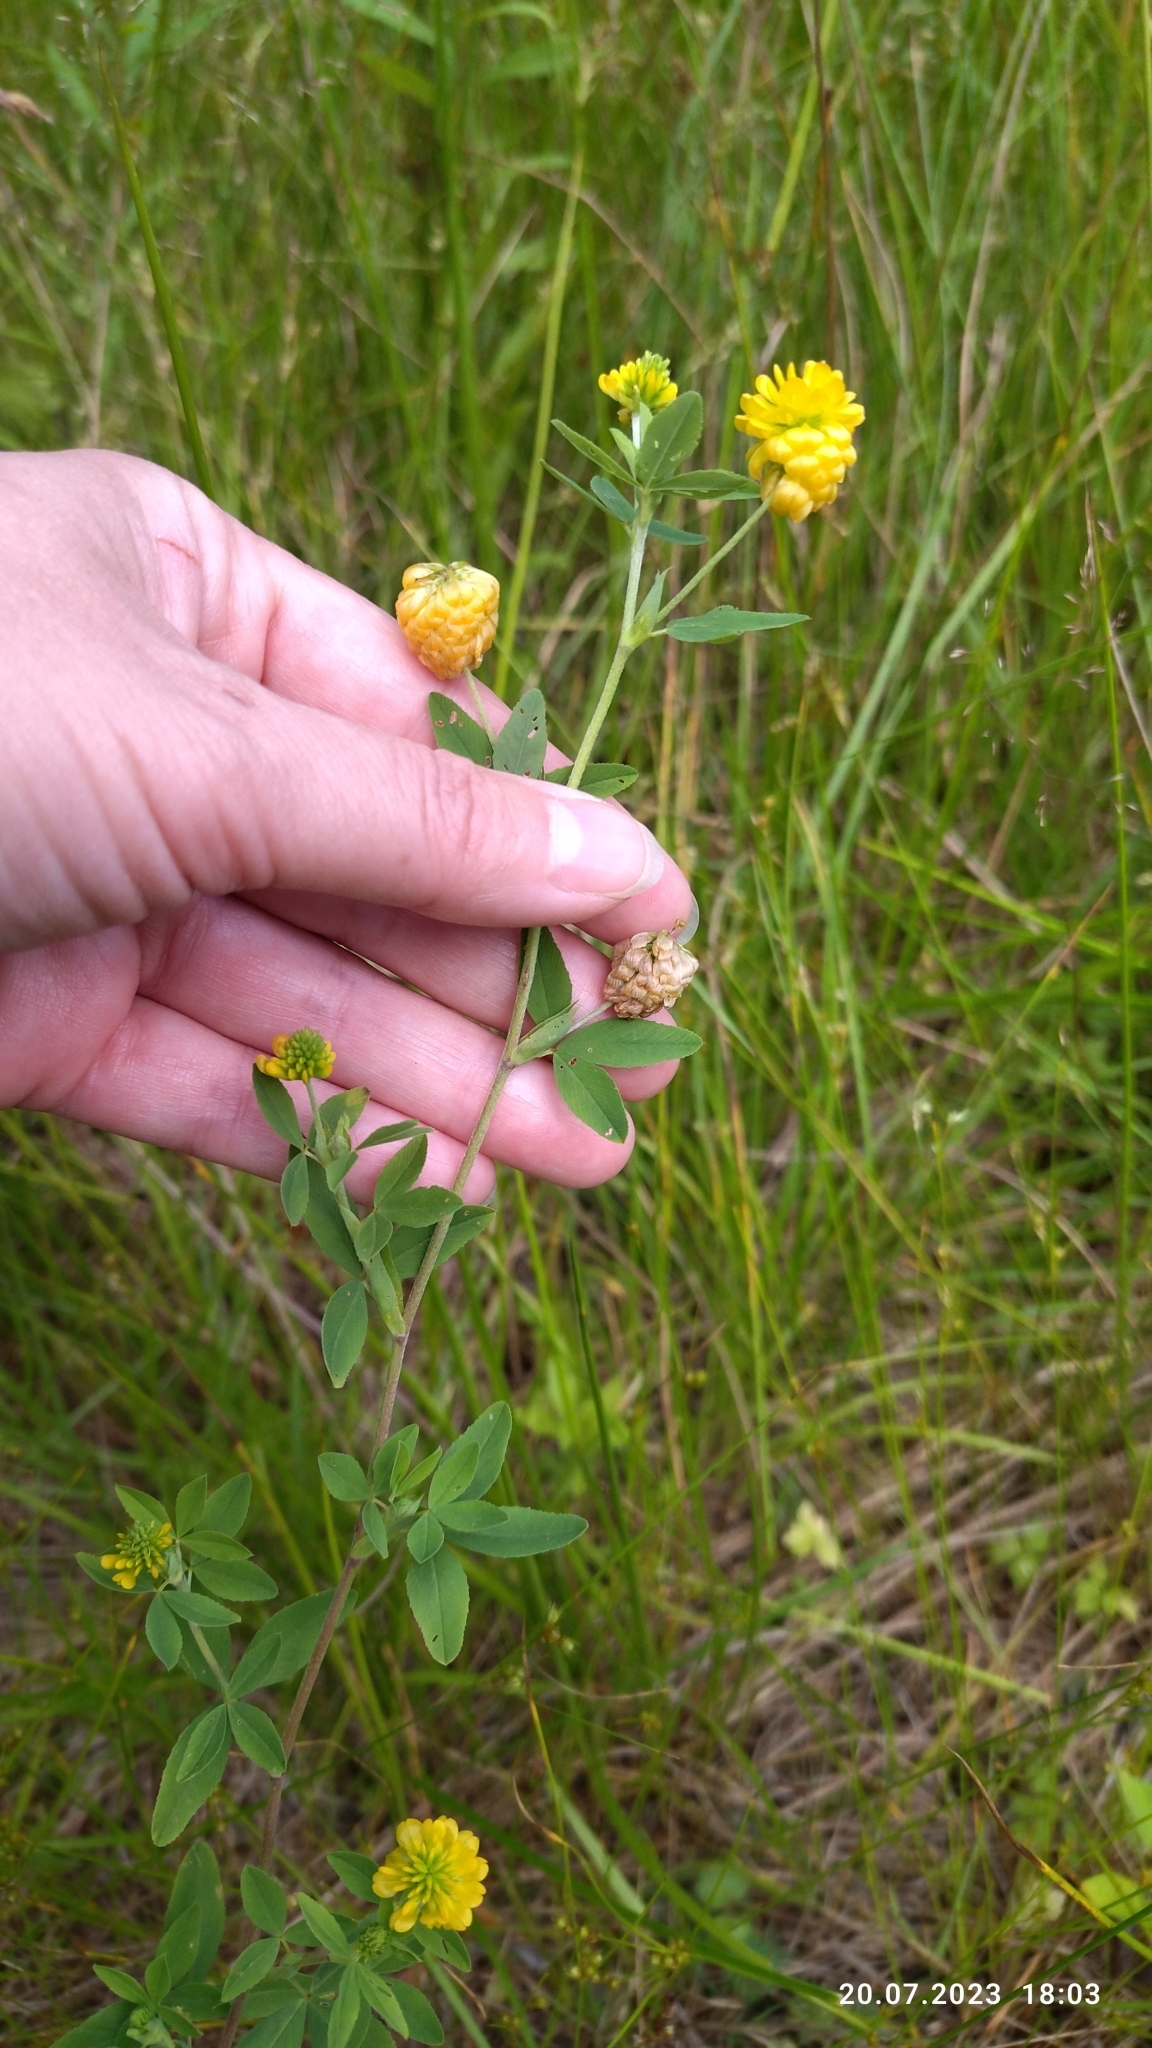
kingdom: Plantae
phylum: Tracheophyta
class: Magnoliopsida
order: Fabales
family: Fabaceae
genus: Trifolium
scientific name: Trifolium aureum
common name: Golden clover
